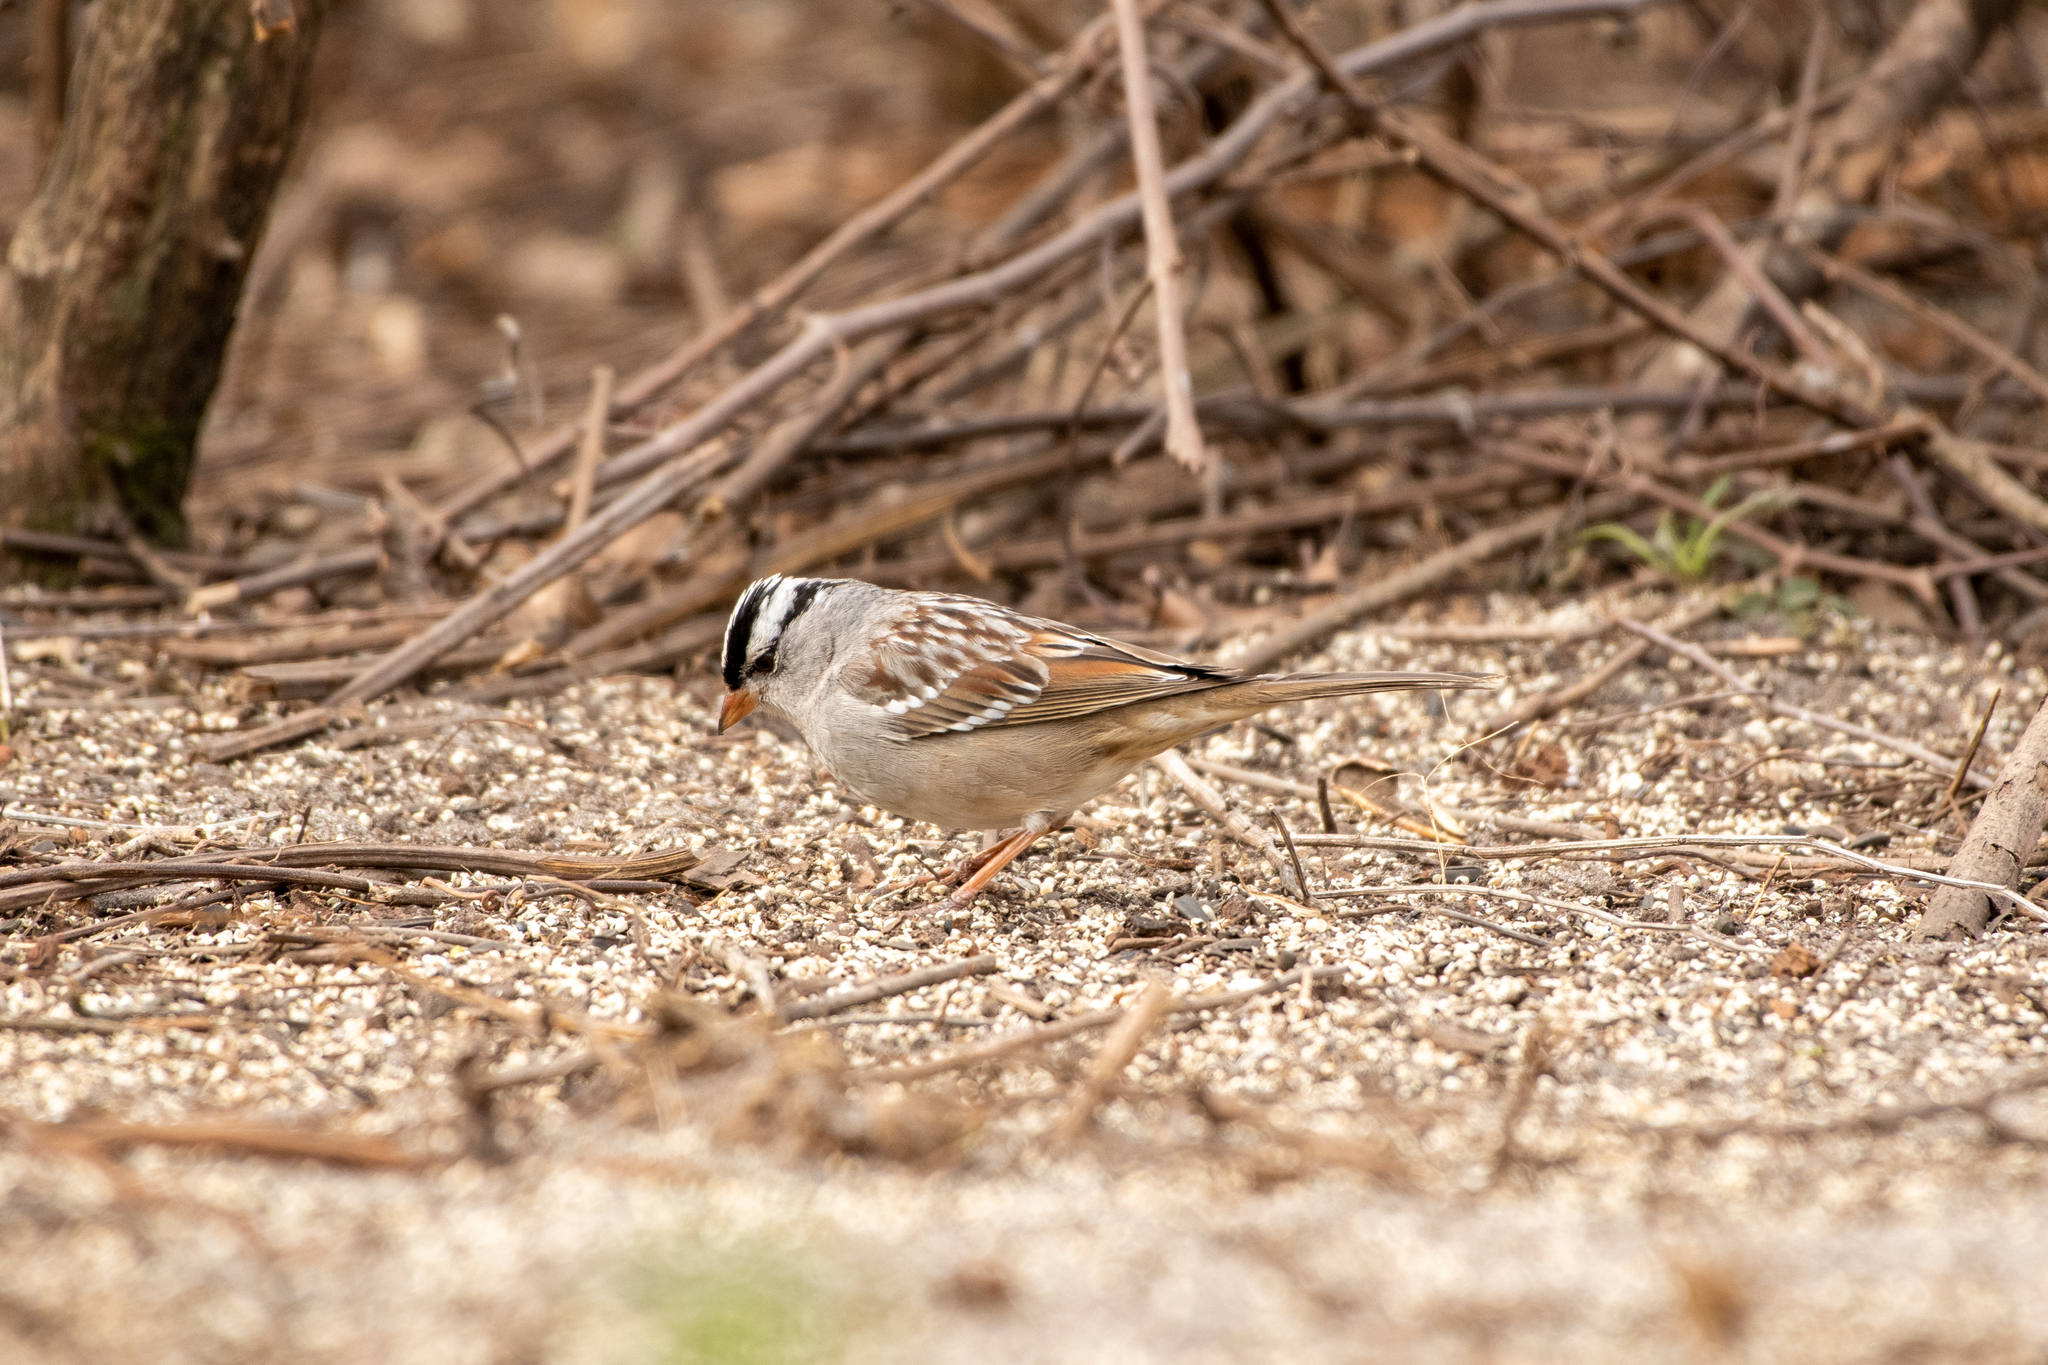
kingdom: Animalia
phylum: Chordata
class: Aves
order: Passeriformes
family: Passerellidae
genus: Zonotrichia
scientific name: Zonotrichia leucophrys
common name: White-crowned sparrow
